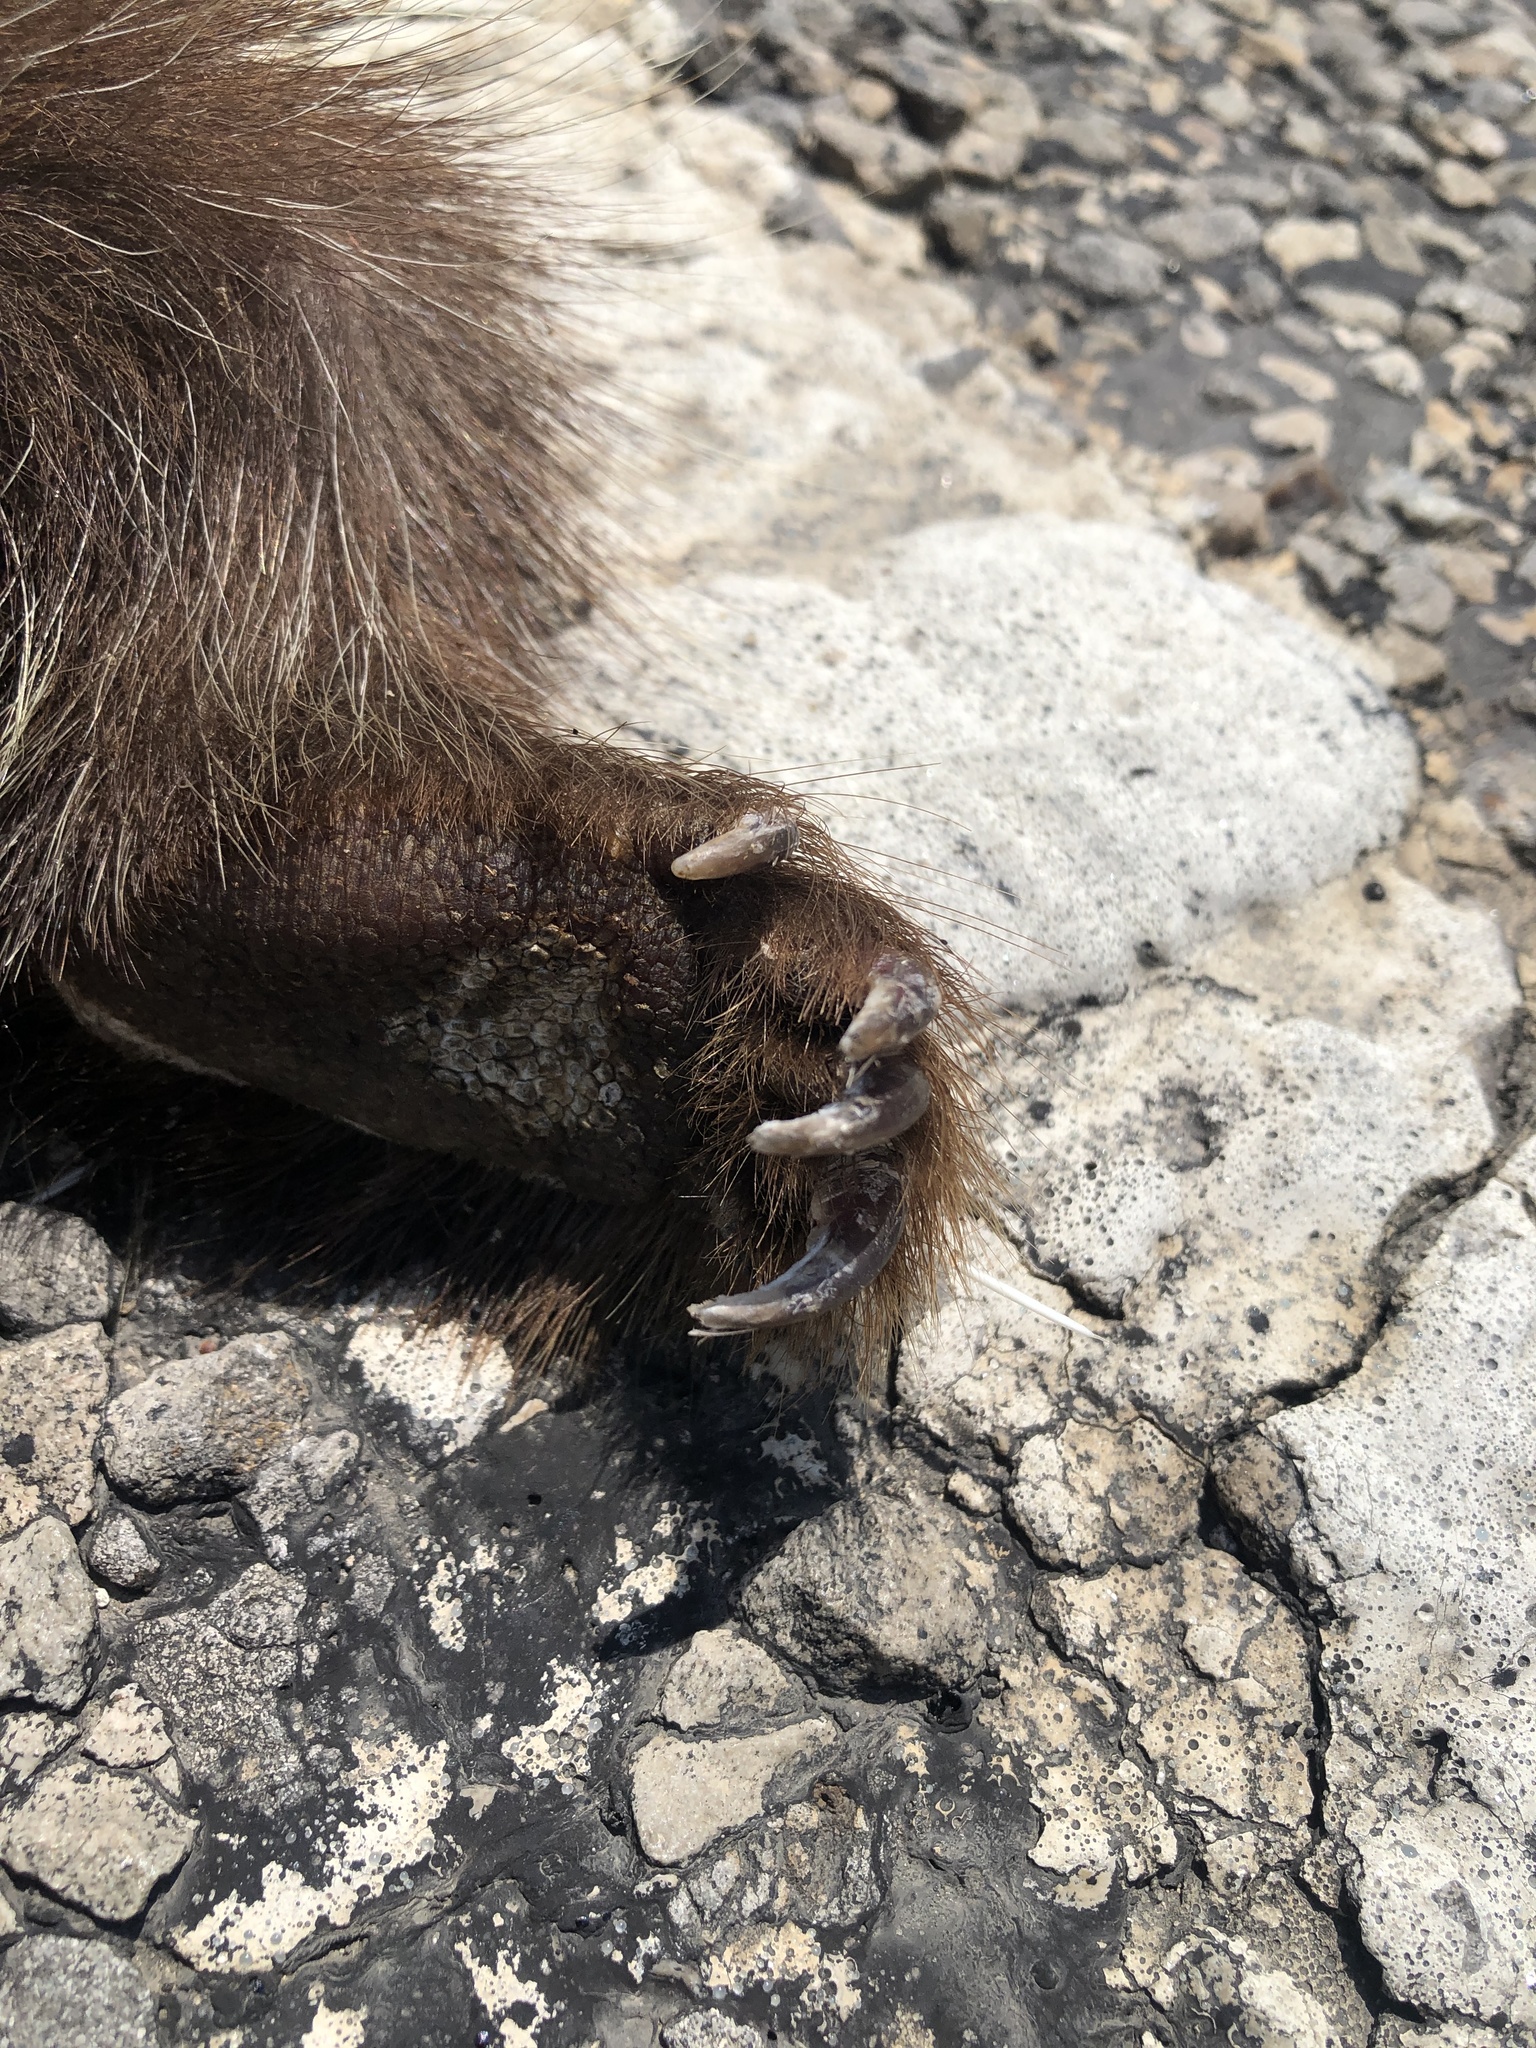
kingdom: Animalia
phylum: Chordata
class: Mammalia
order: Rodentia
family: Erethizontidae
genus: Erethizon
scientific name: Erethizon dorsatus
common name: North american porcupine
